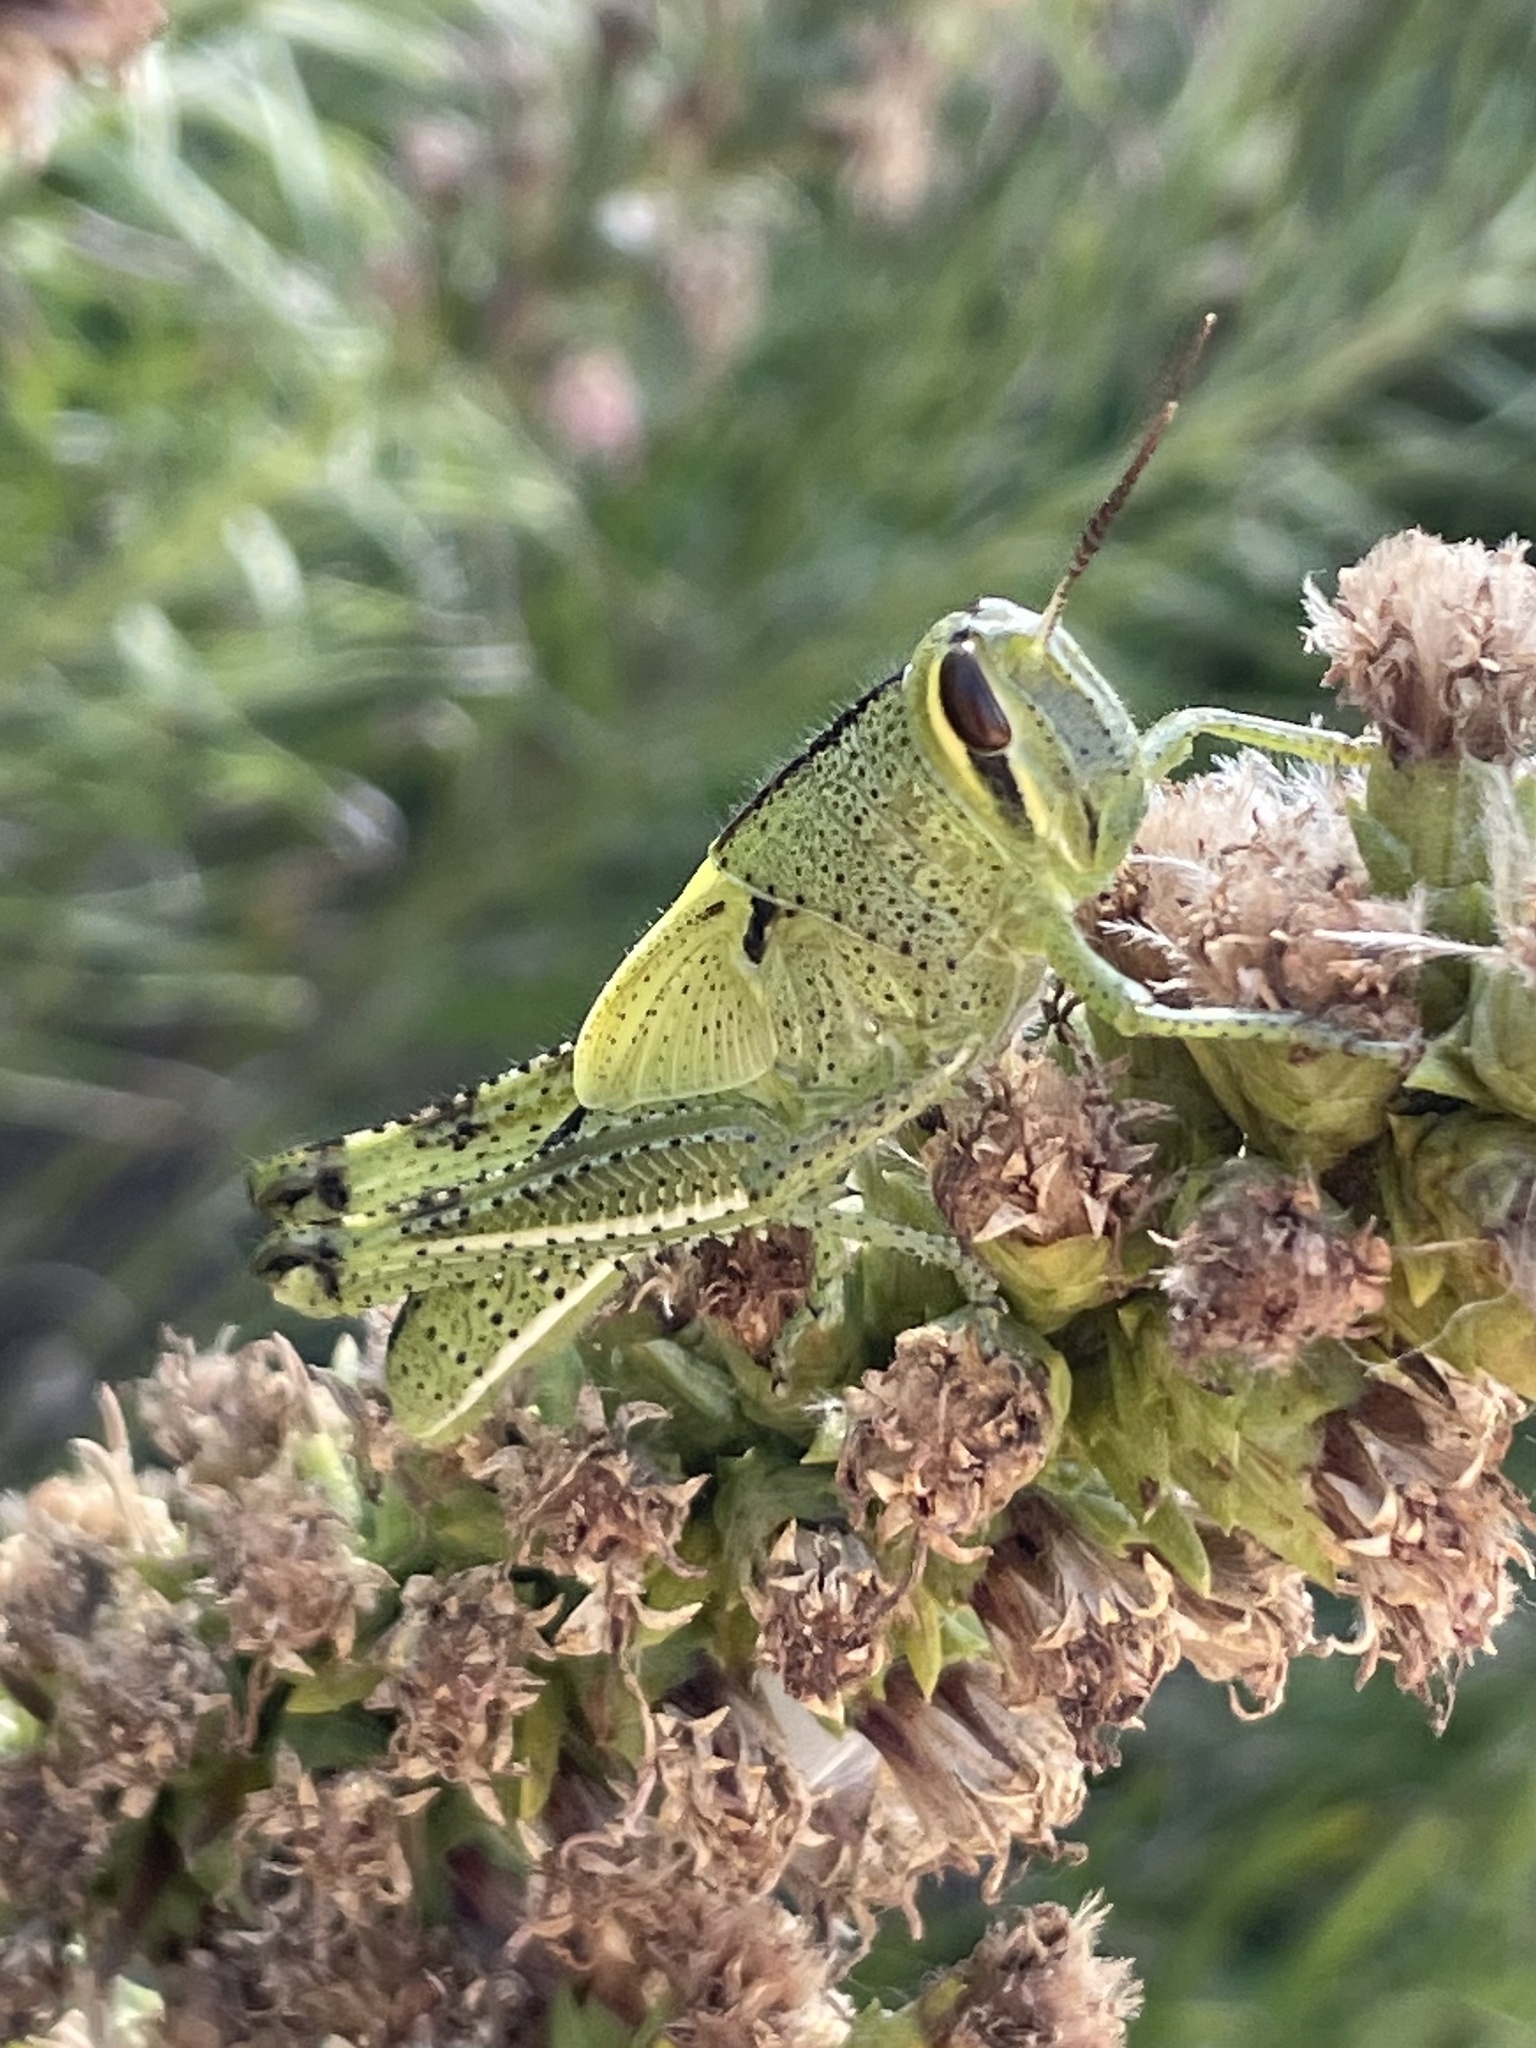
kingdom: Animalia
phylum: Arthropoda
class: Insecta
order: Orthoptera
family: Acrididae
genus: Schistocerca
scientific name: Schistocerca americana
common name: American bird locust
